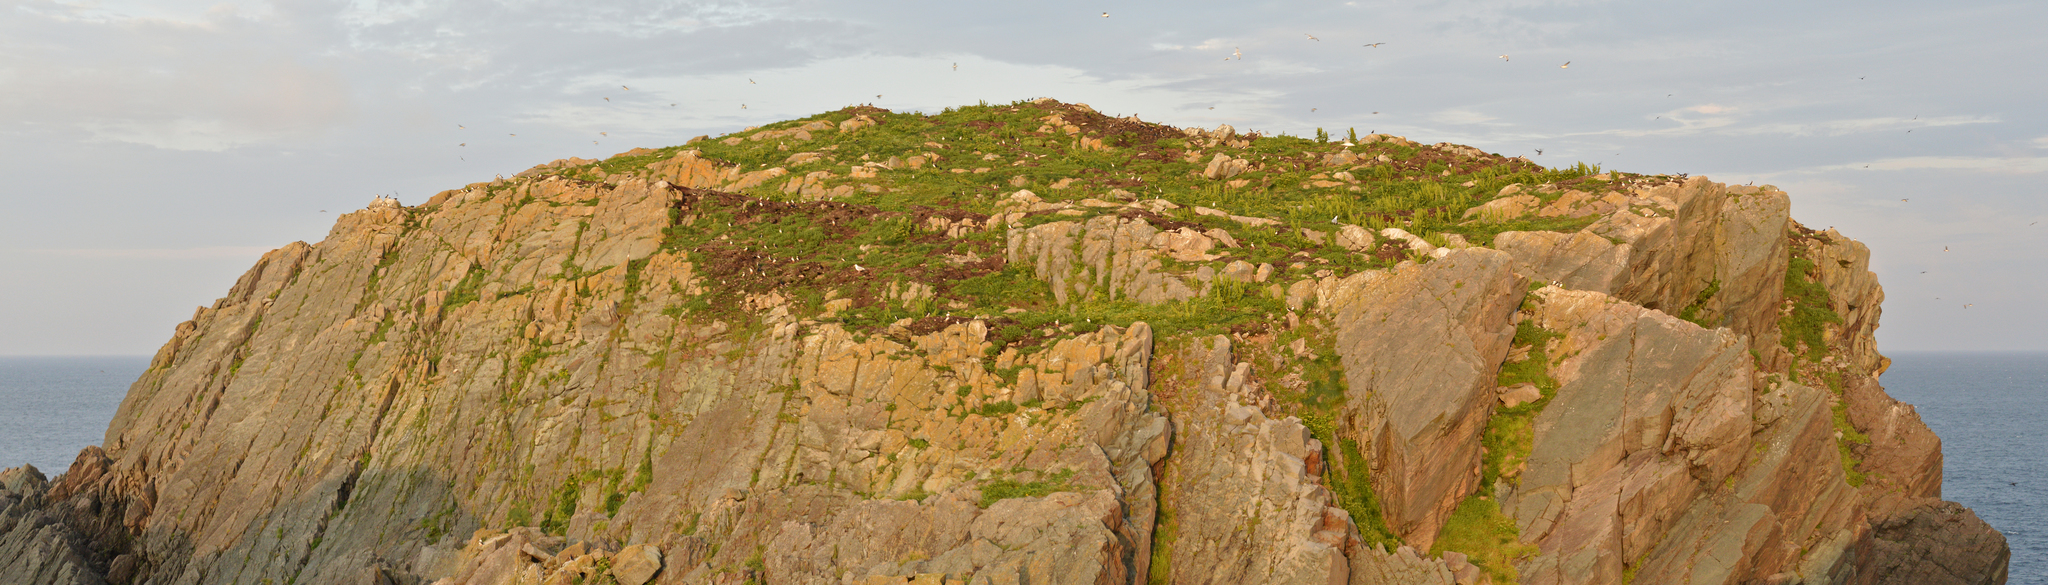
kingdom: Animalia
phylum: Chordata
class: Aves
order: Charadriiformes
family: Alcidae
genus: Fratercula
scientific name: Fratercula arctica
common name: Atlantic puffin
